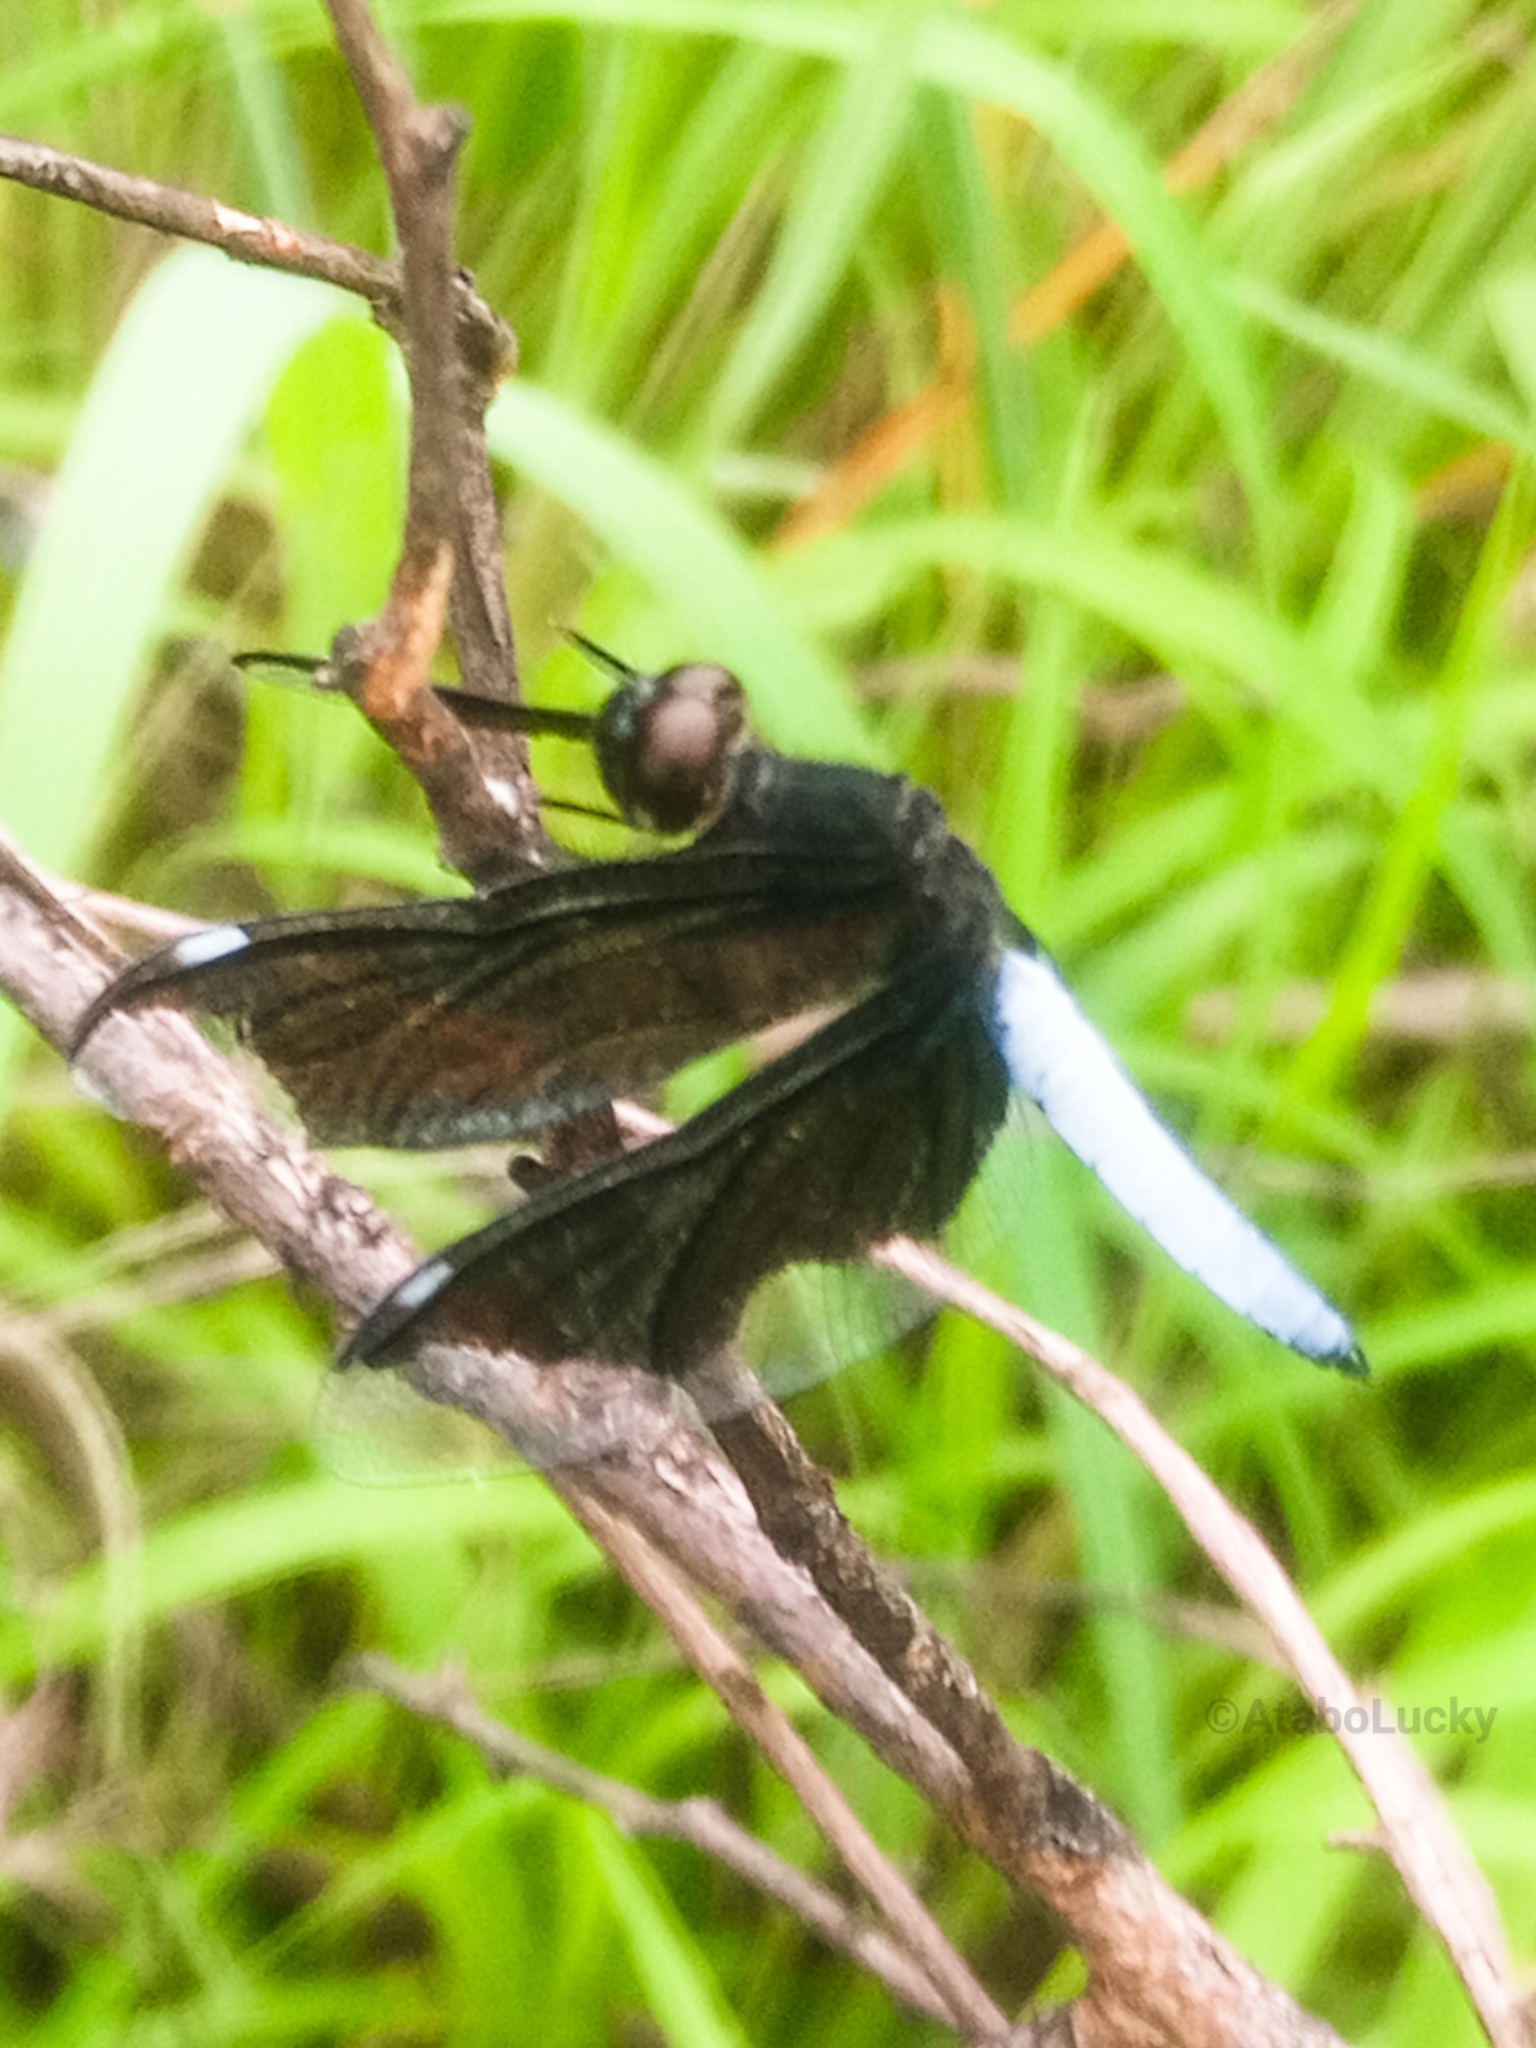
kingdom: Animalia
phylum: Arthropoda
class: Insecta
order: Odonata
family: Libellulidae
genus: Palpopleura
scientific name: Palpopleura lucia
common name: Lucia widow
